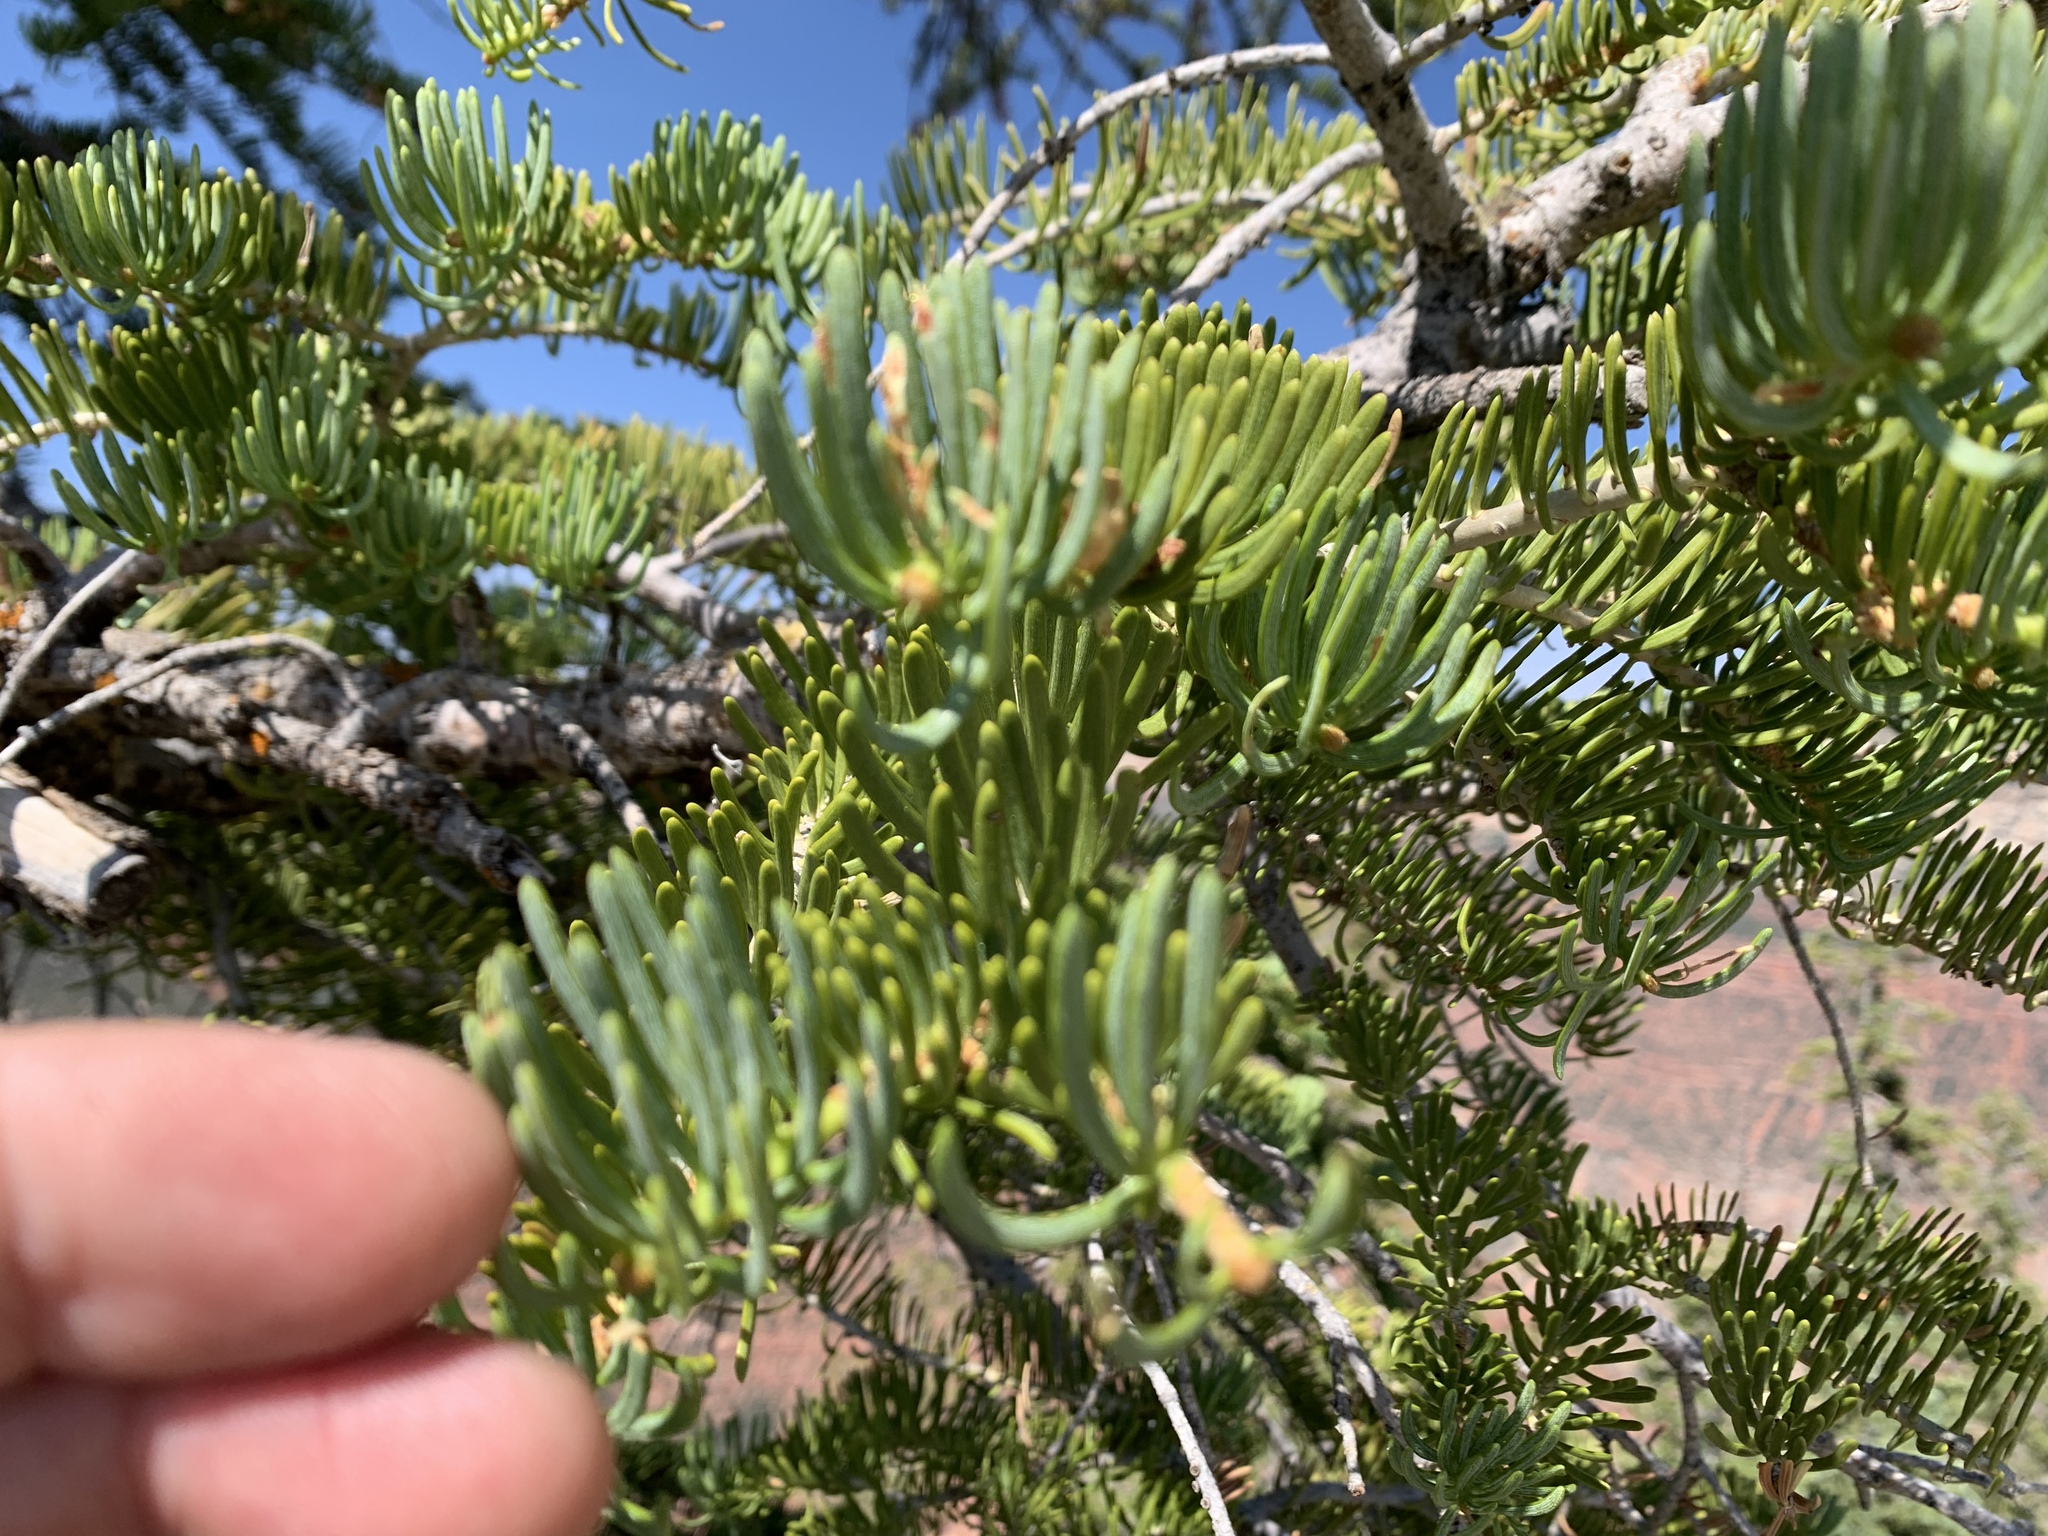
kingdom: Plantae
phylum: Tracheophyta
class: Pinopsida
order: Pinales
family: Pinaceae
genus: Abies
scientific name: Abies concolor
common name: Colorado fir
